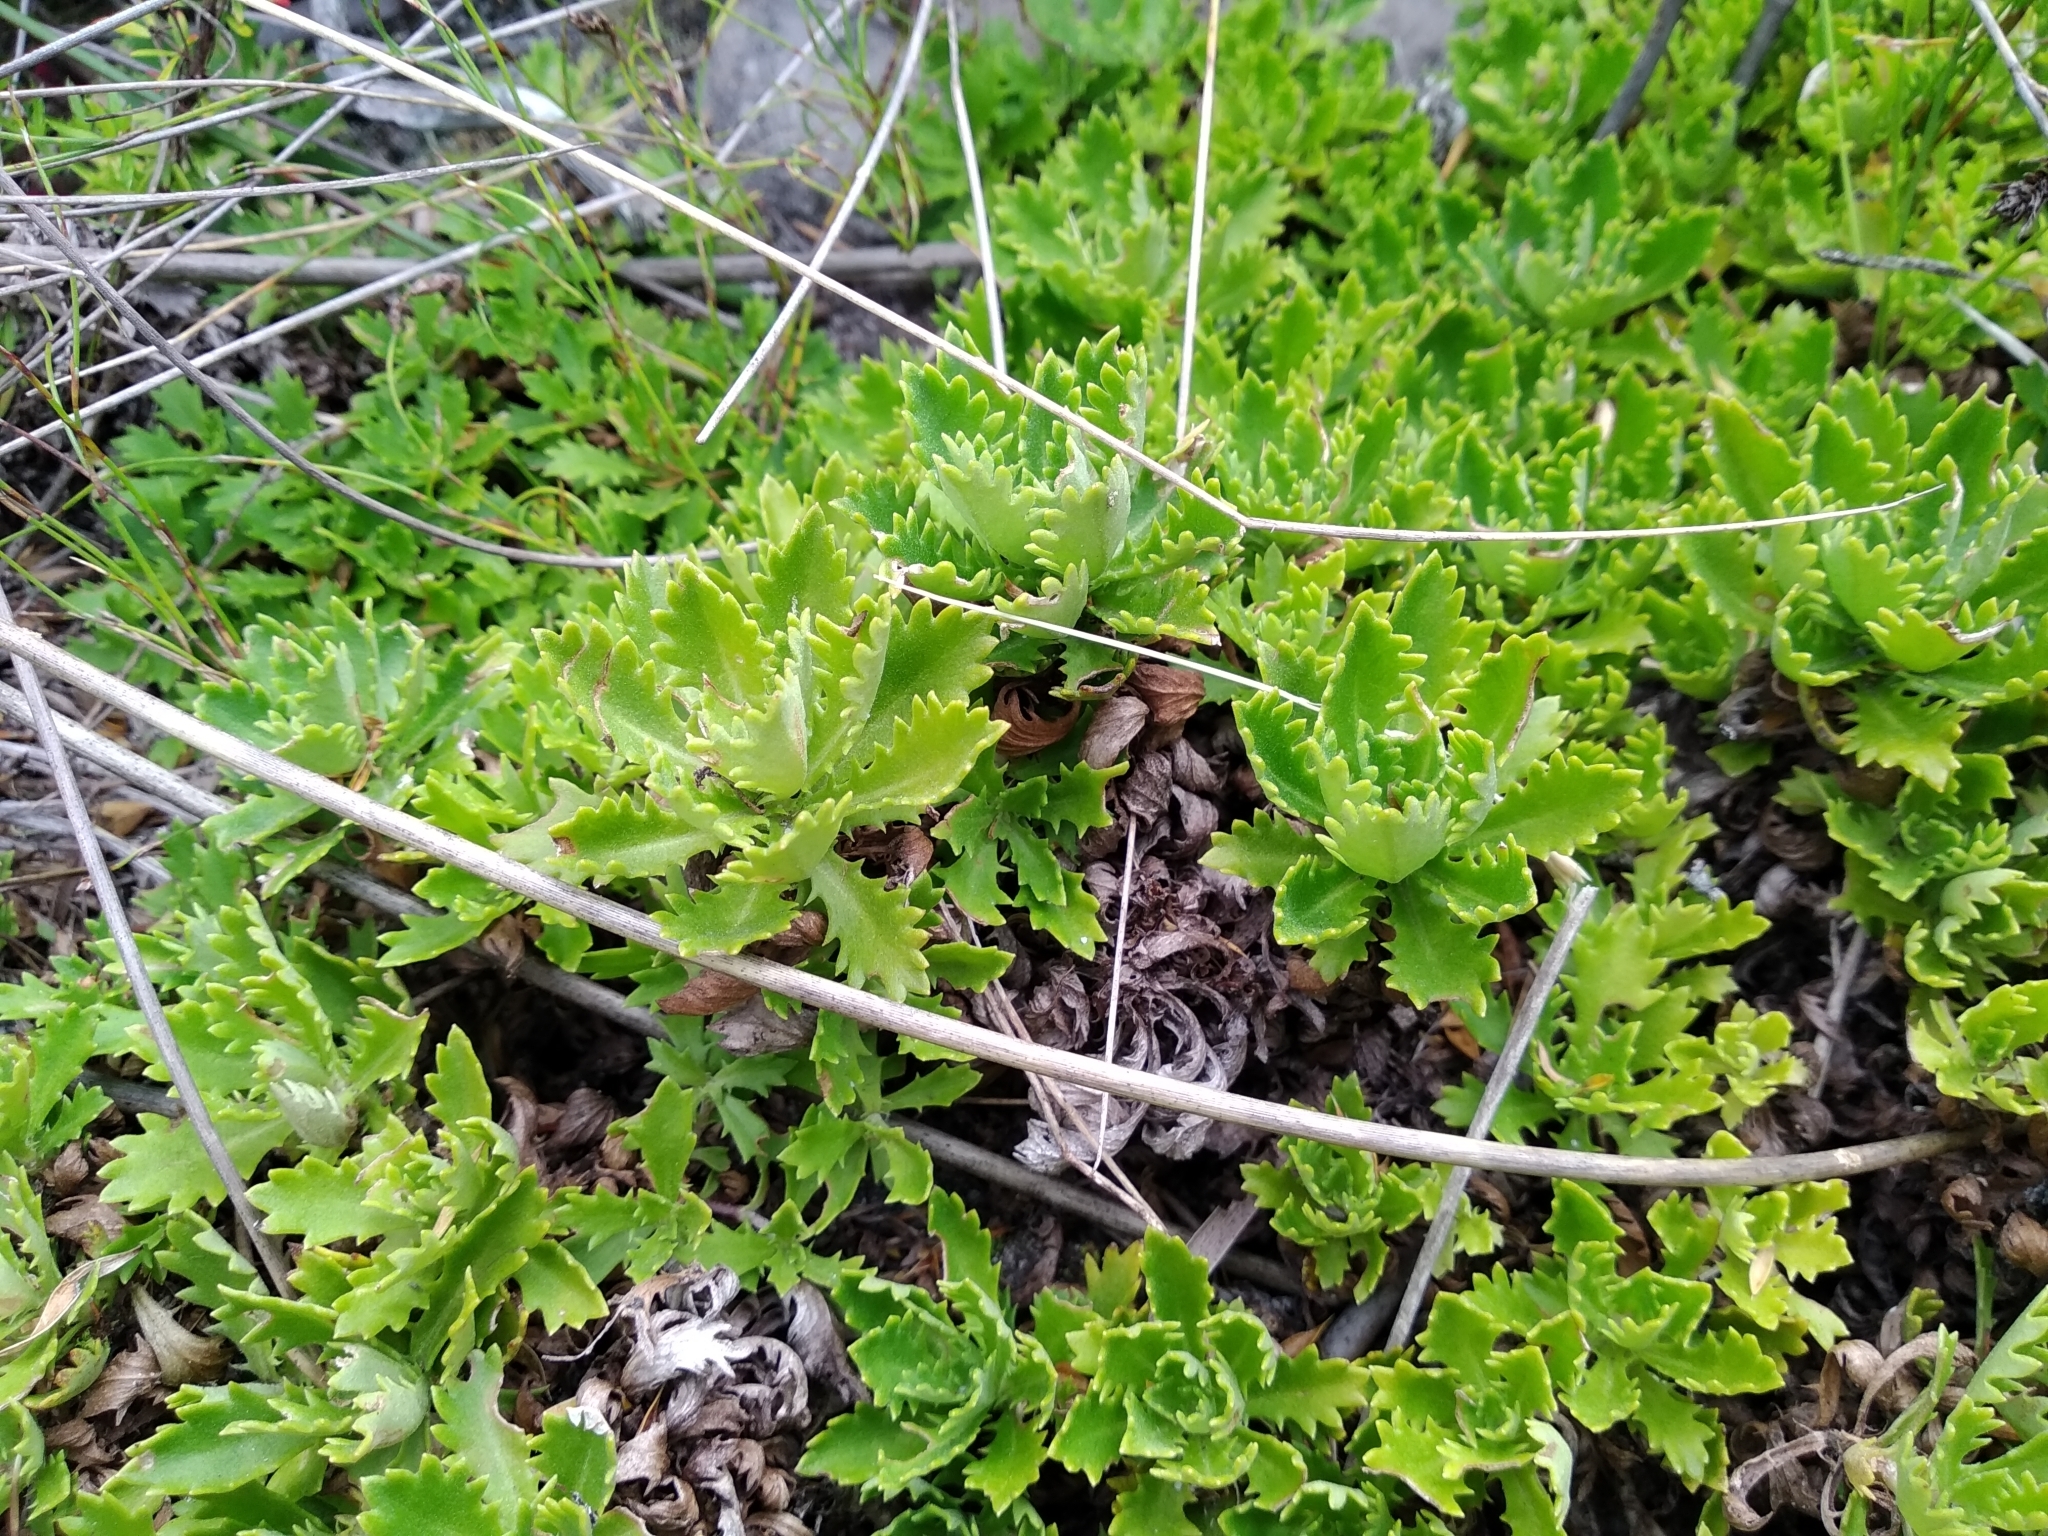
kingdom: Plantae
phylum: Tracheophyta
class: Magnoliopsida
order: Asterales
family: Asteraceae
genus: Osmitopsis
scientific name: Osmitopsis dentata
